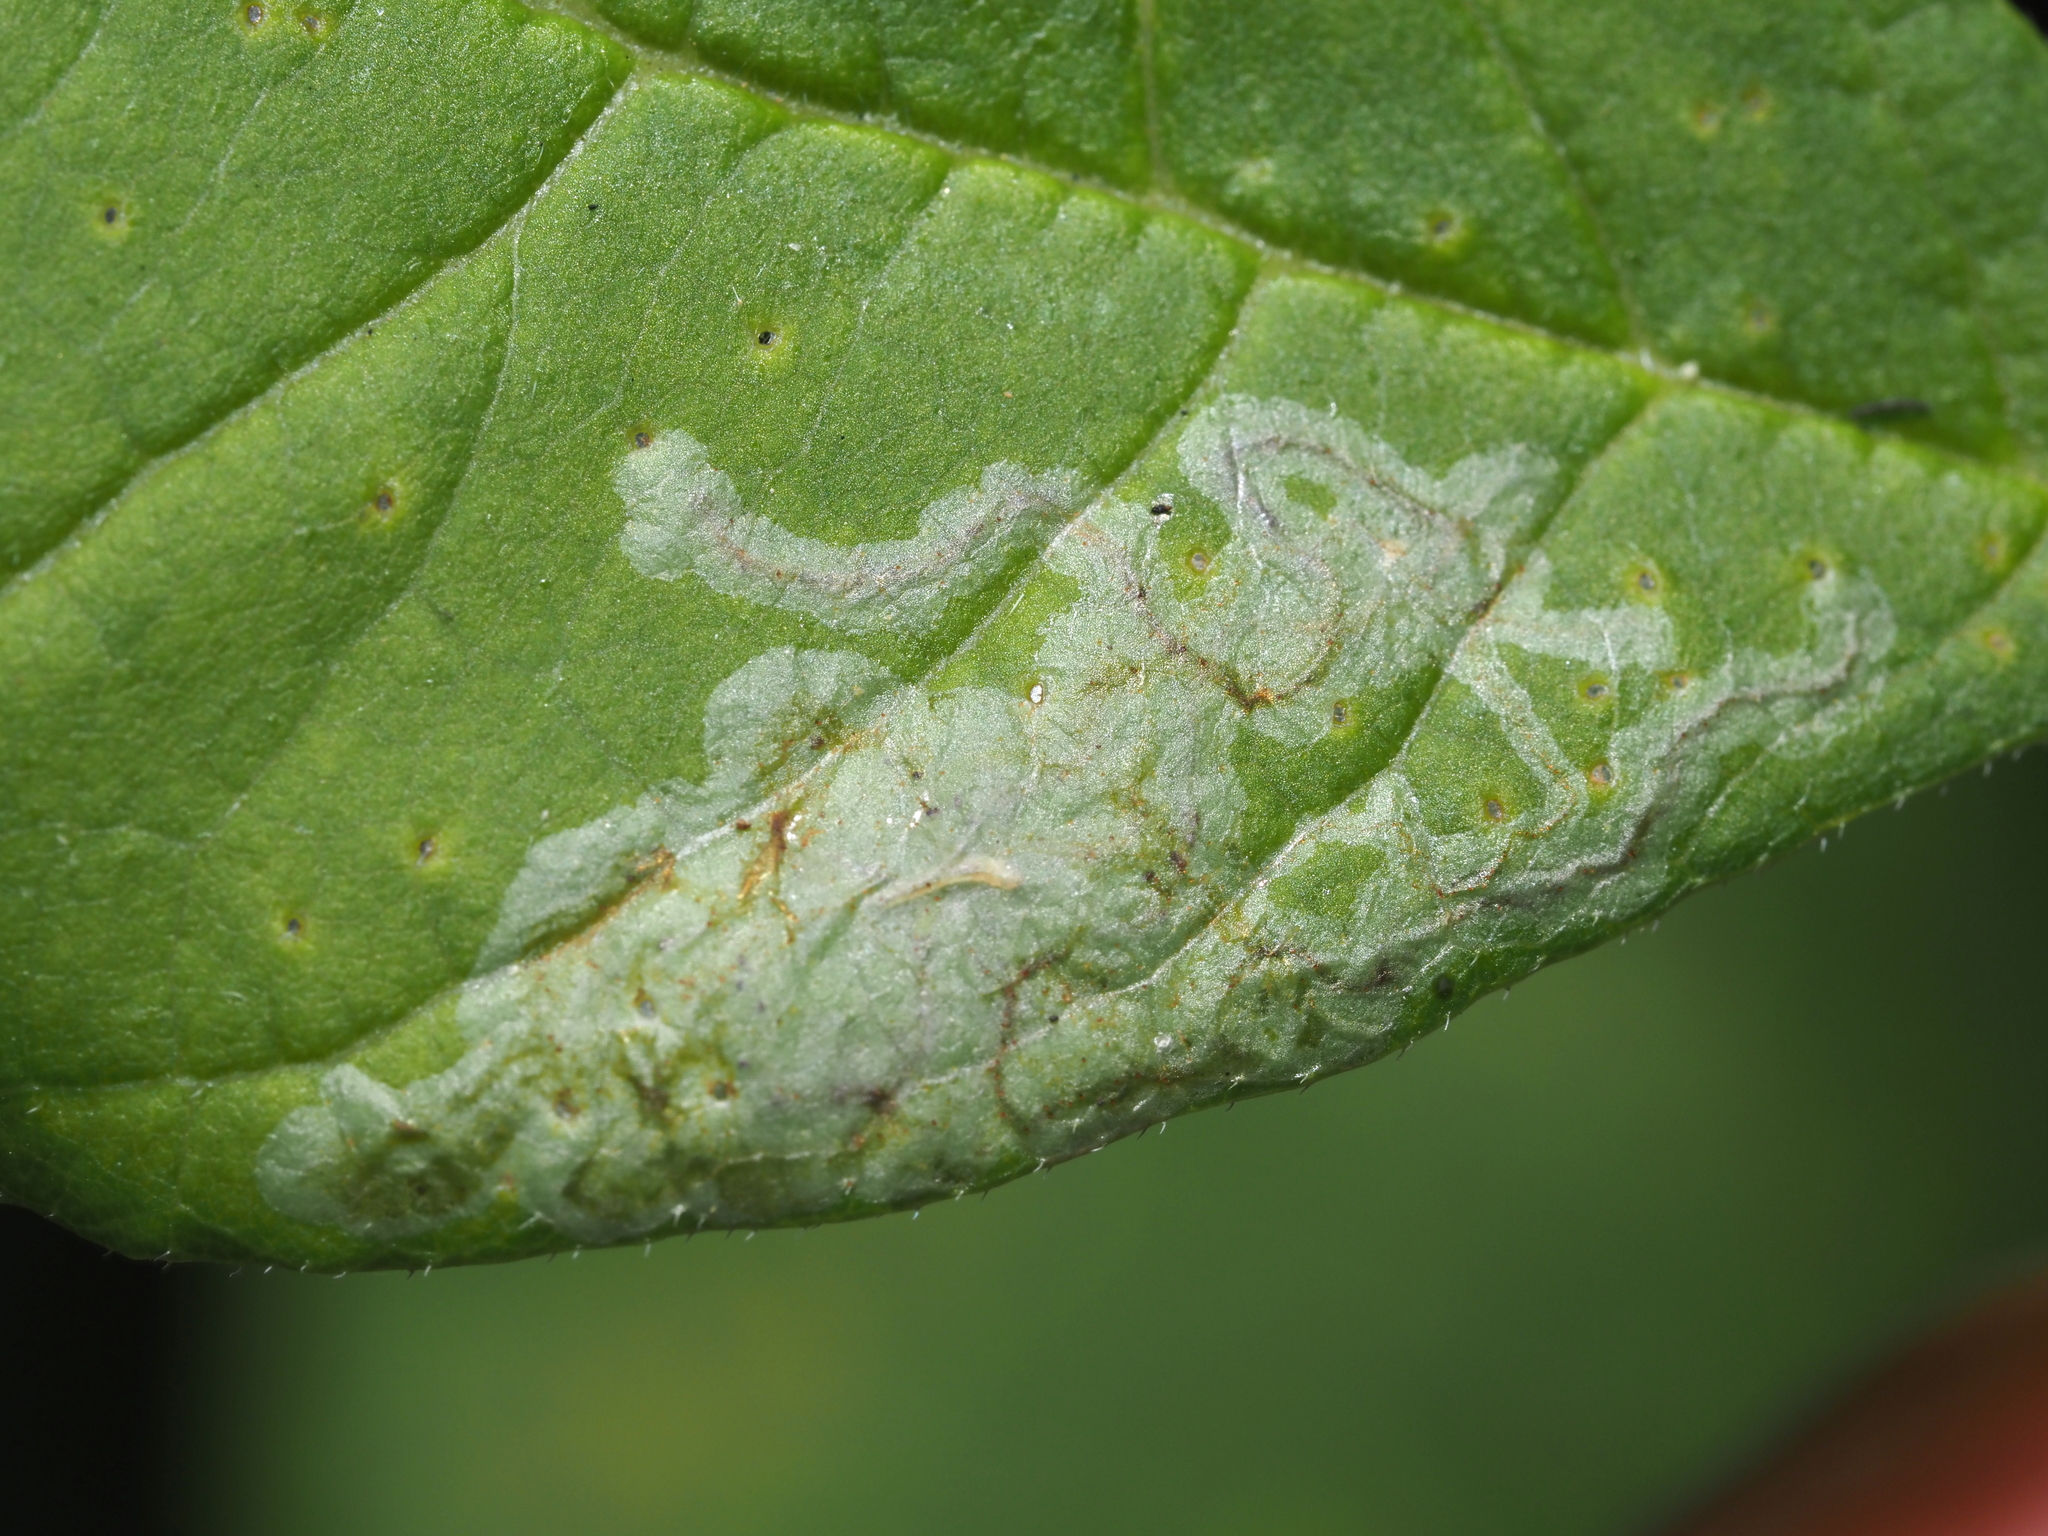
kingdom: Animalia
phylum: Arthropoda
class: Insecta
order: Lepidoptera
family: Gracillariidae
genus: Caloptilia
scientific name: Caloptilia fraxinella
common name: Ash leaf cone roller
